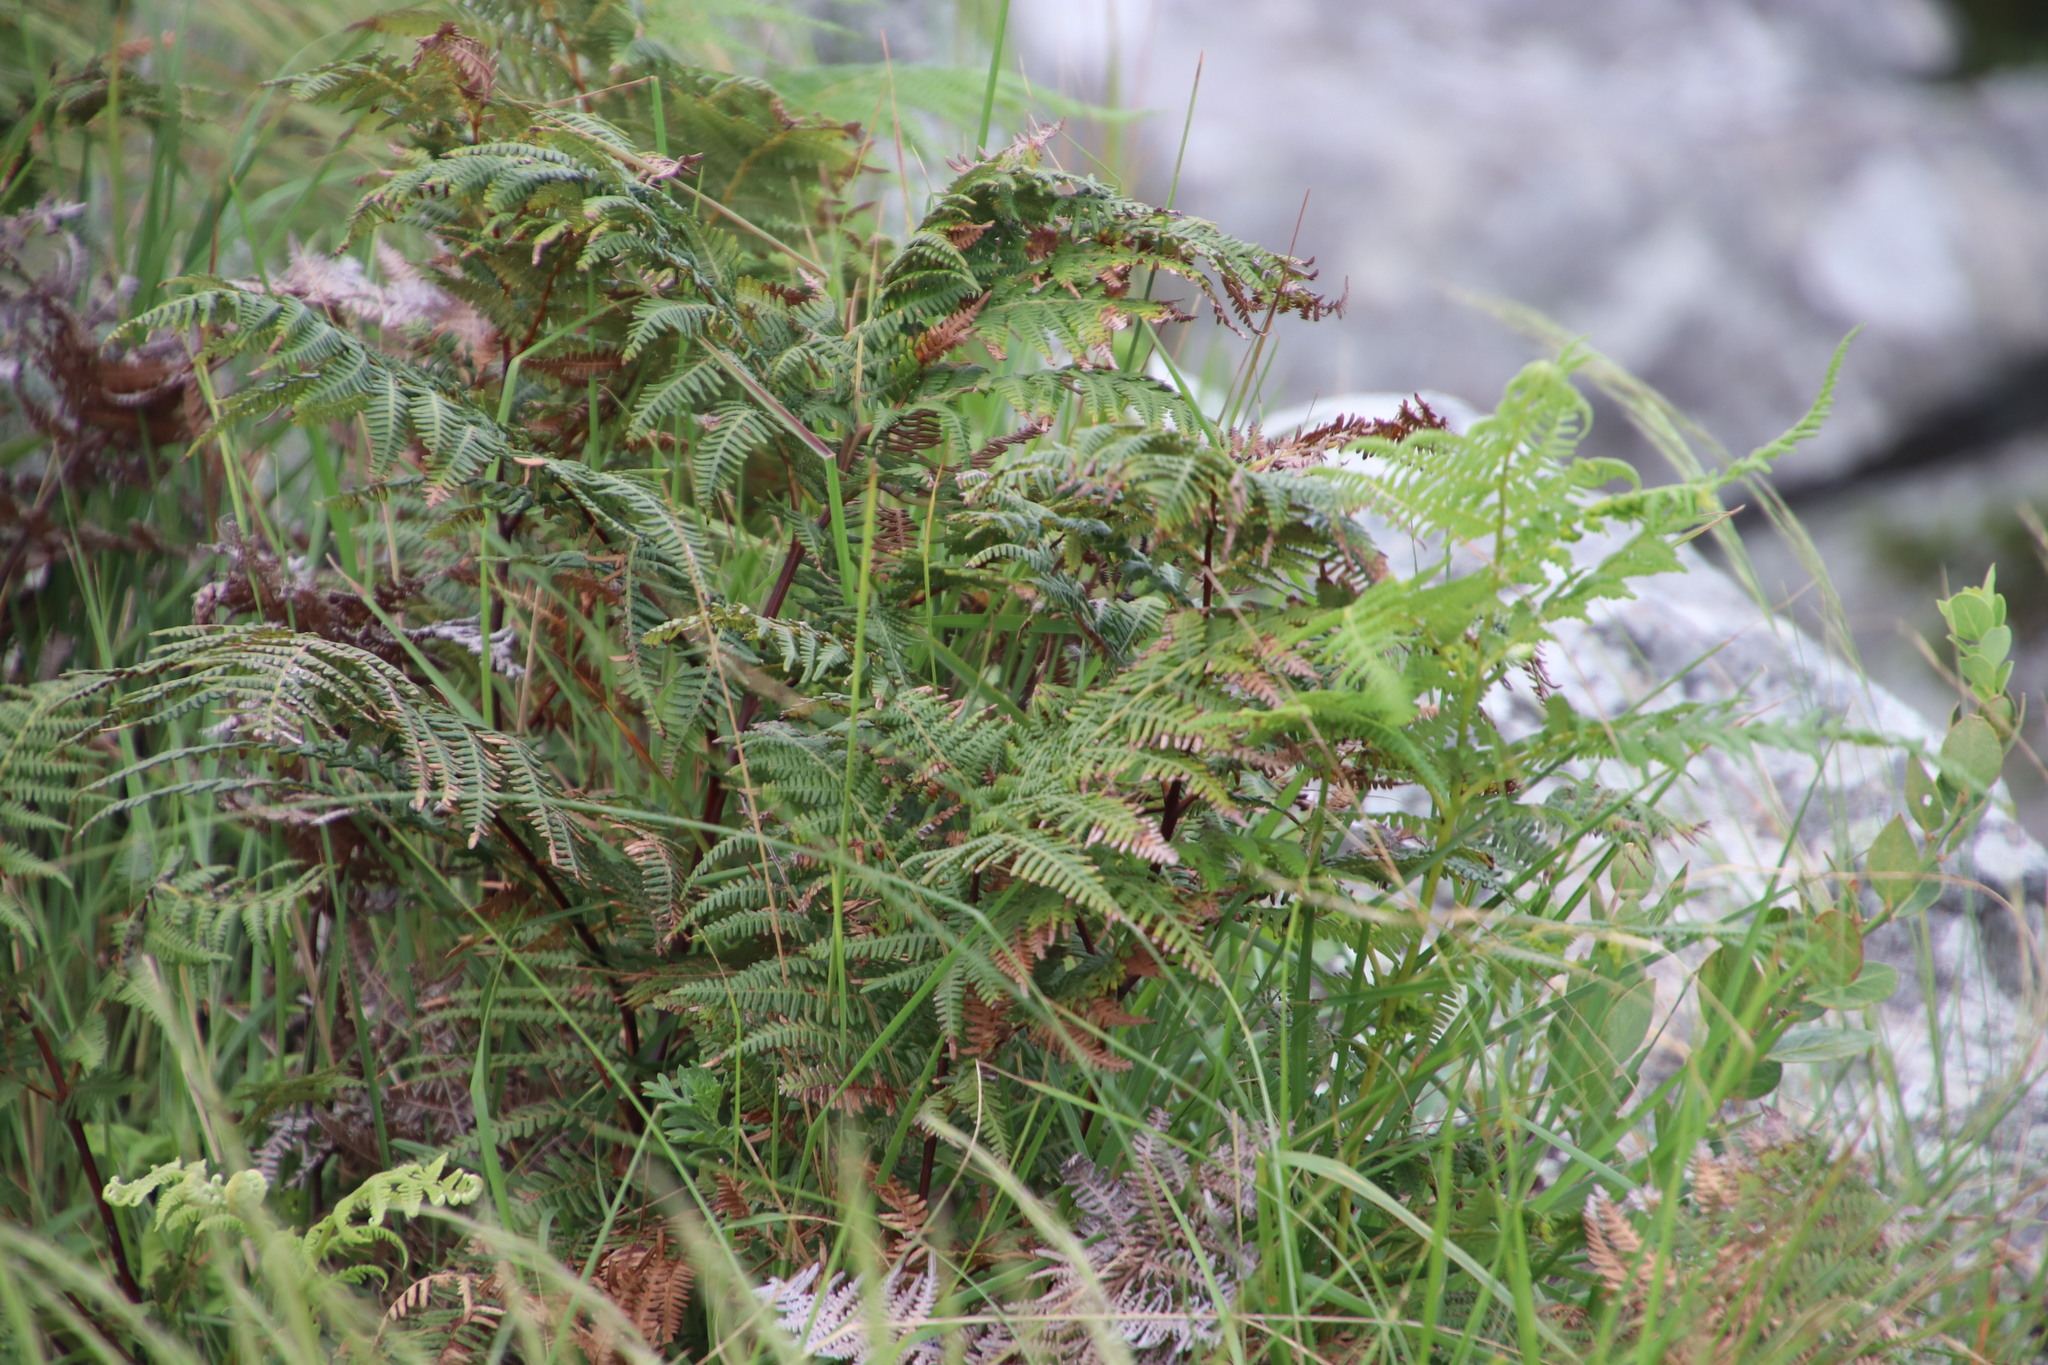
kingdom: Plantae
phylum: Tracheophyta
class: Polypodiopsida
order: Polypodiales
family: Dennstaedtiaceae
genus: Pteridium
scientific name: Pteridium aquilinum
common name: Bracken
